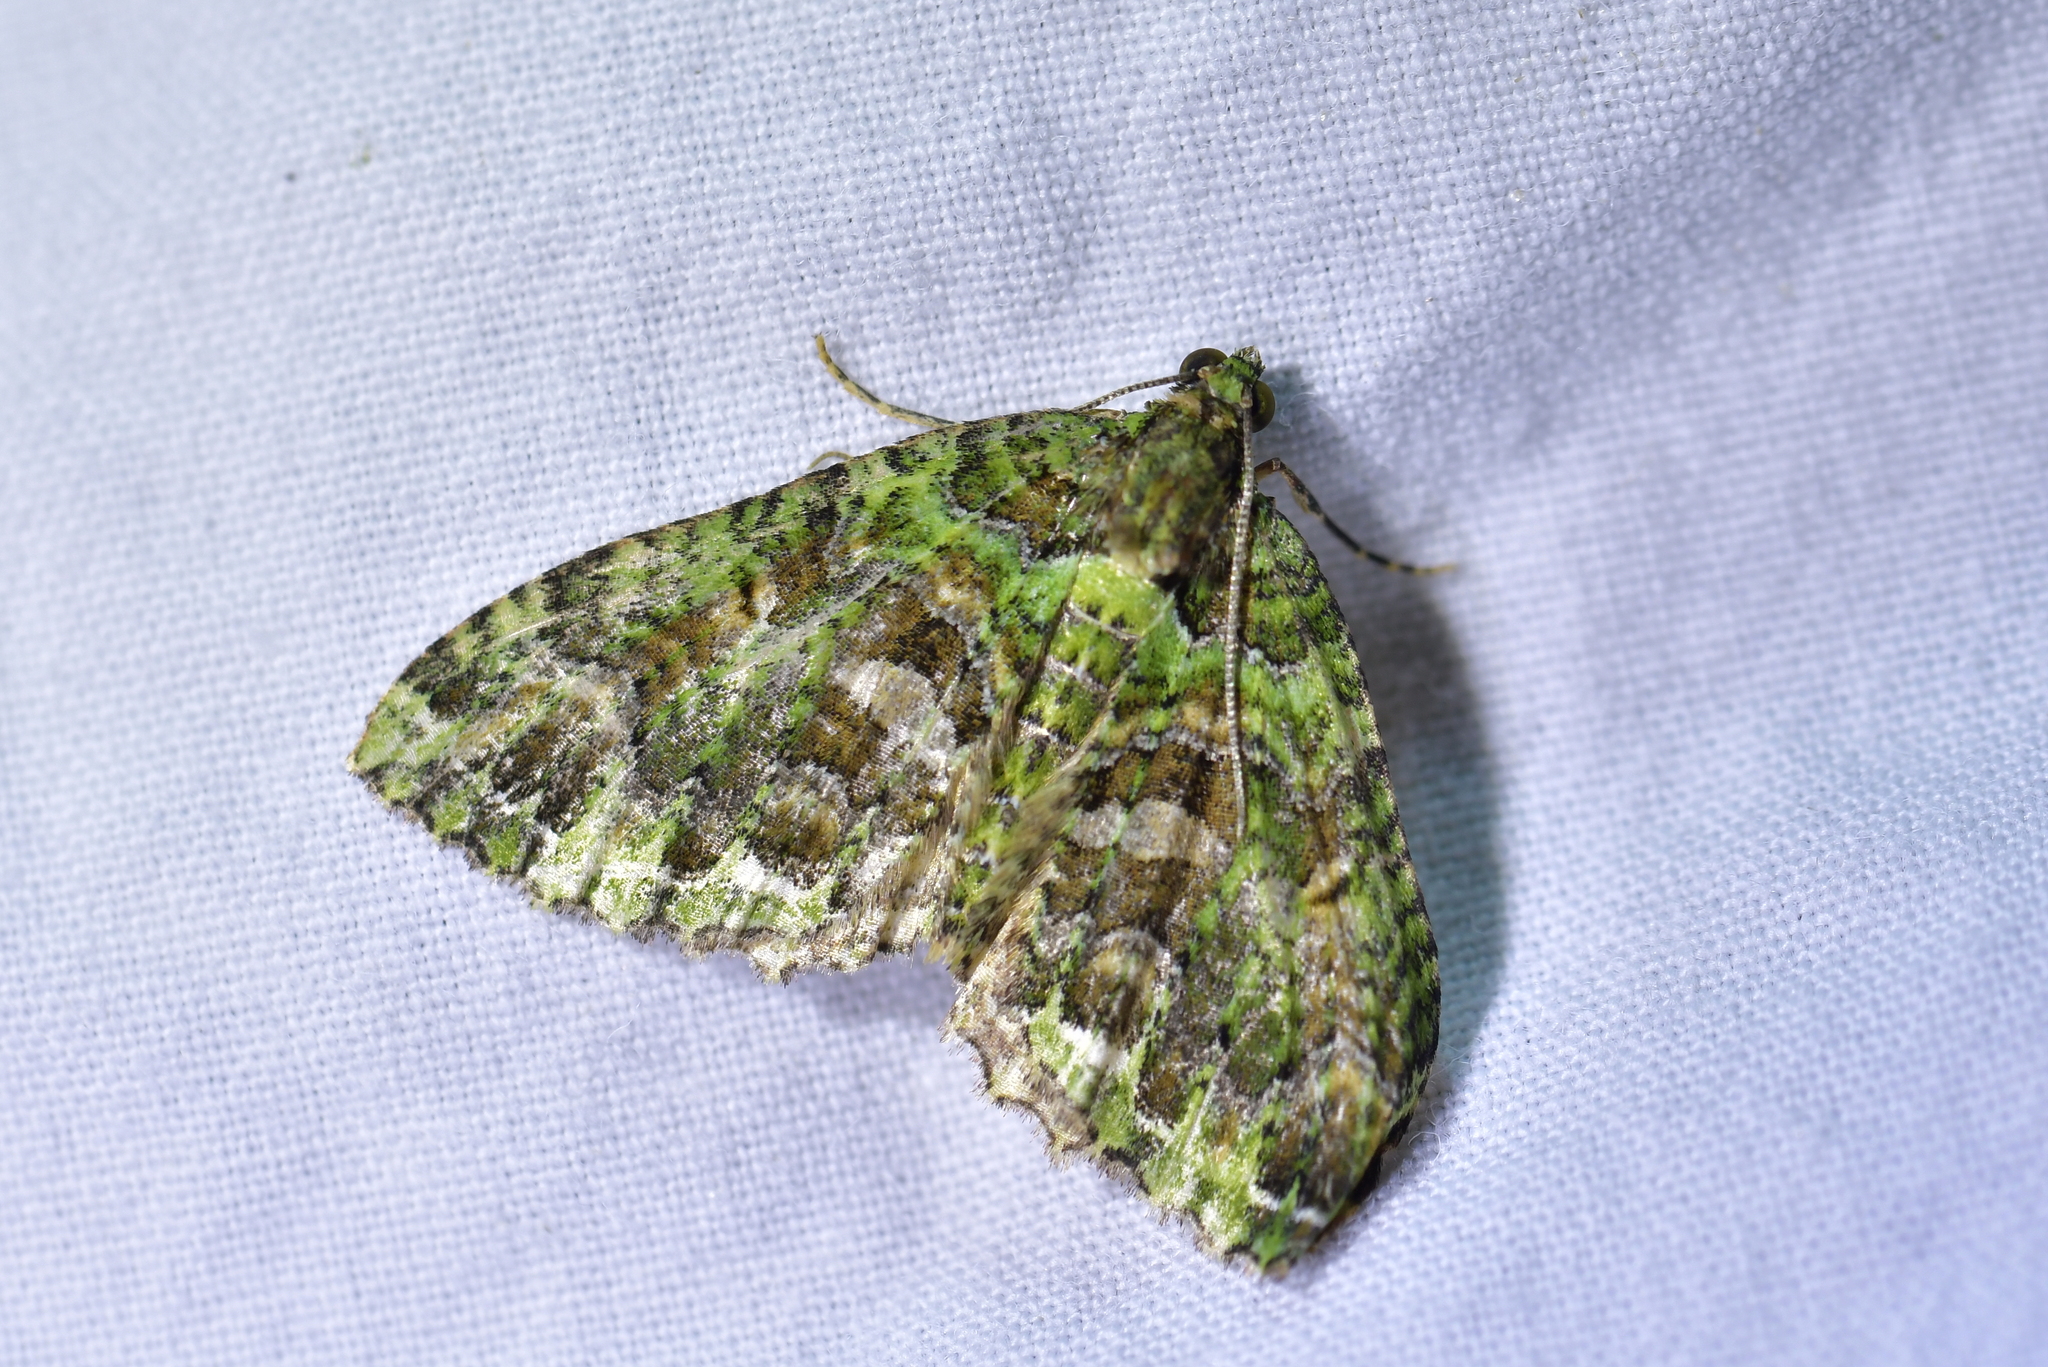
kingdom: Animalia
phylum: Arthropoda
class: Insecta
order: Lepidoptera
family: Geometridae
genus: Austrocidaria
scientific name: Austrocidaria similata
